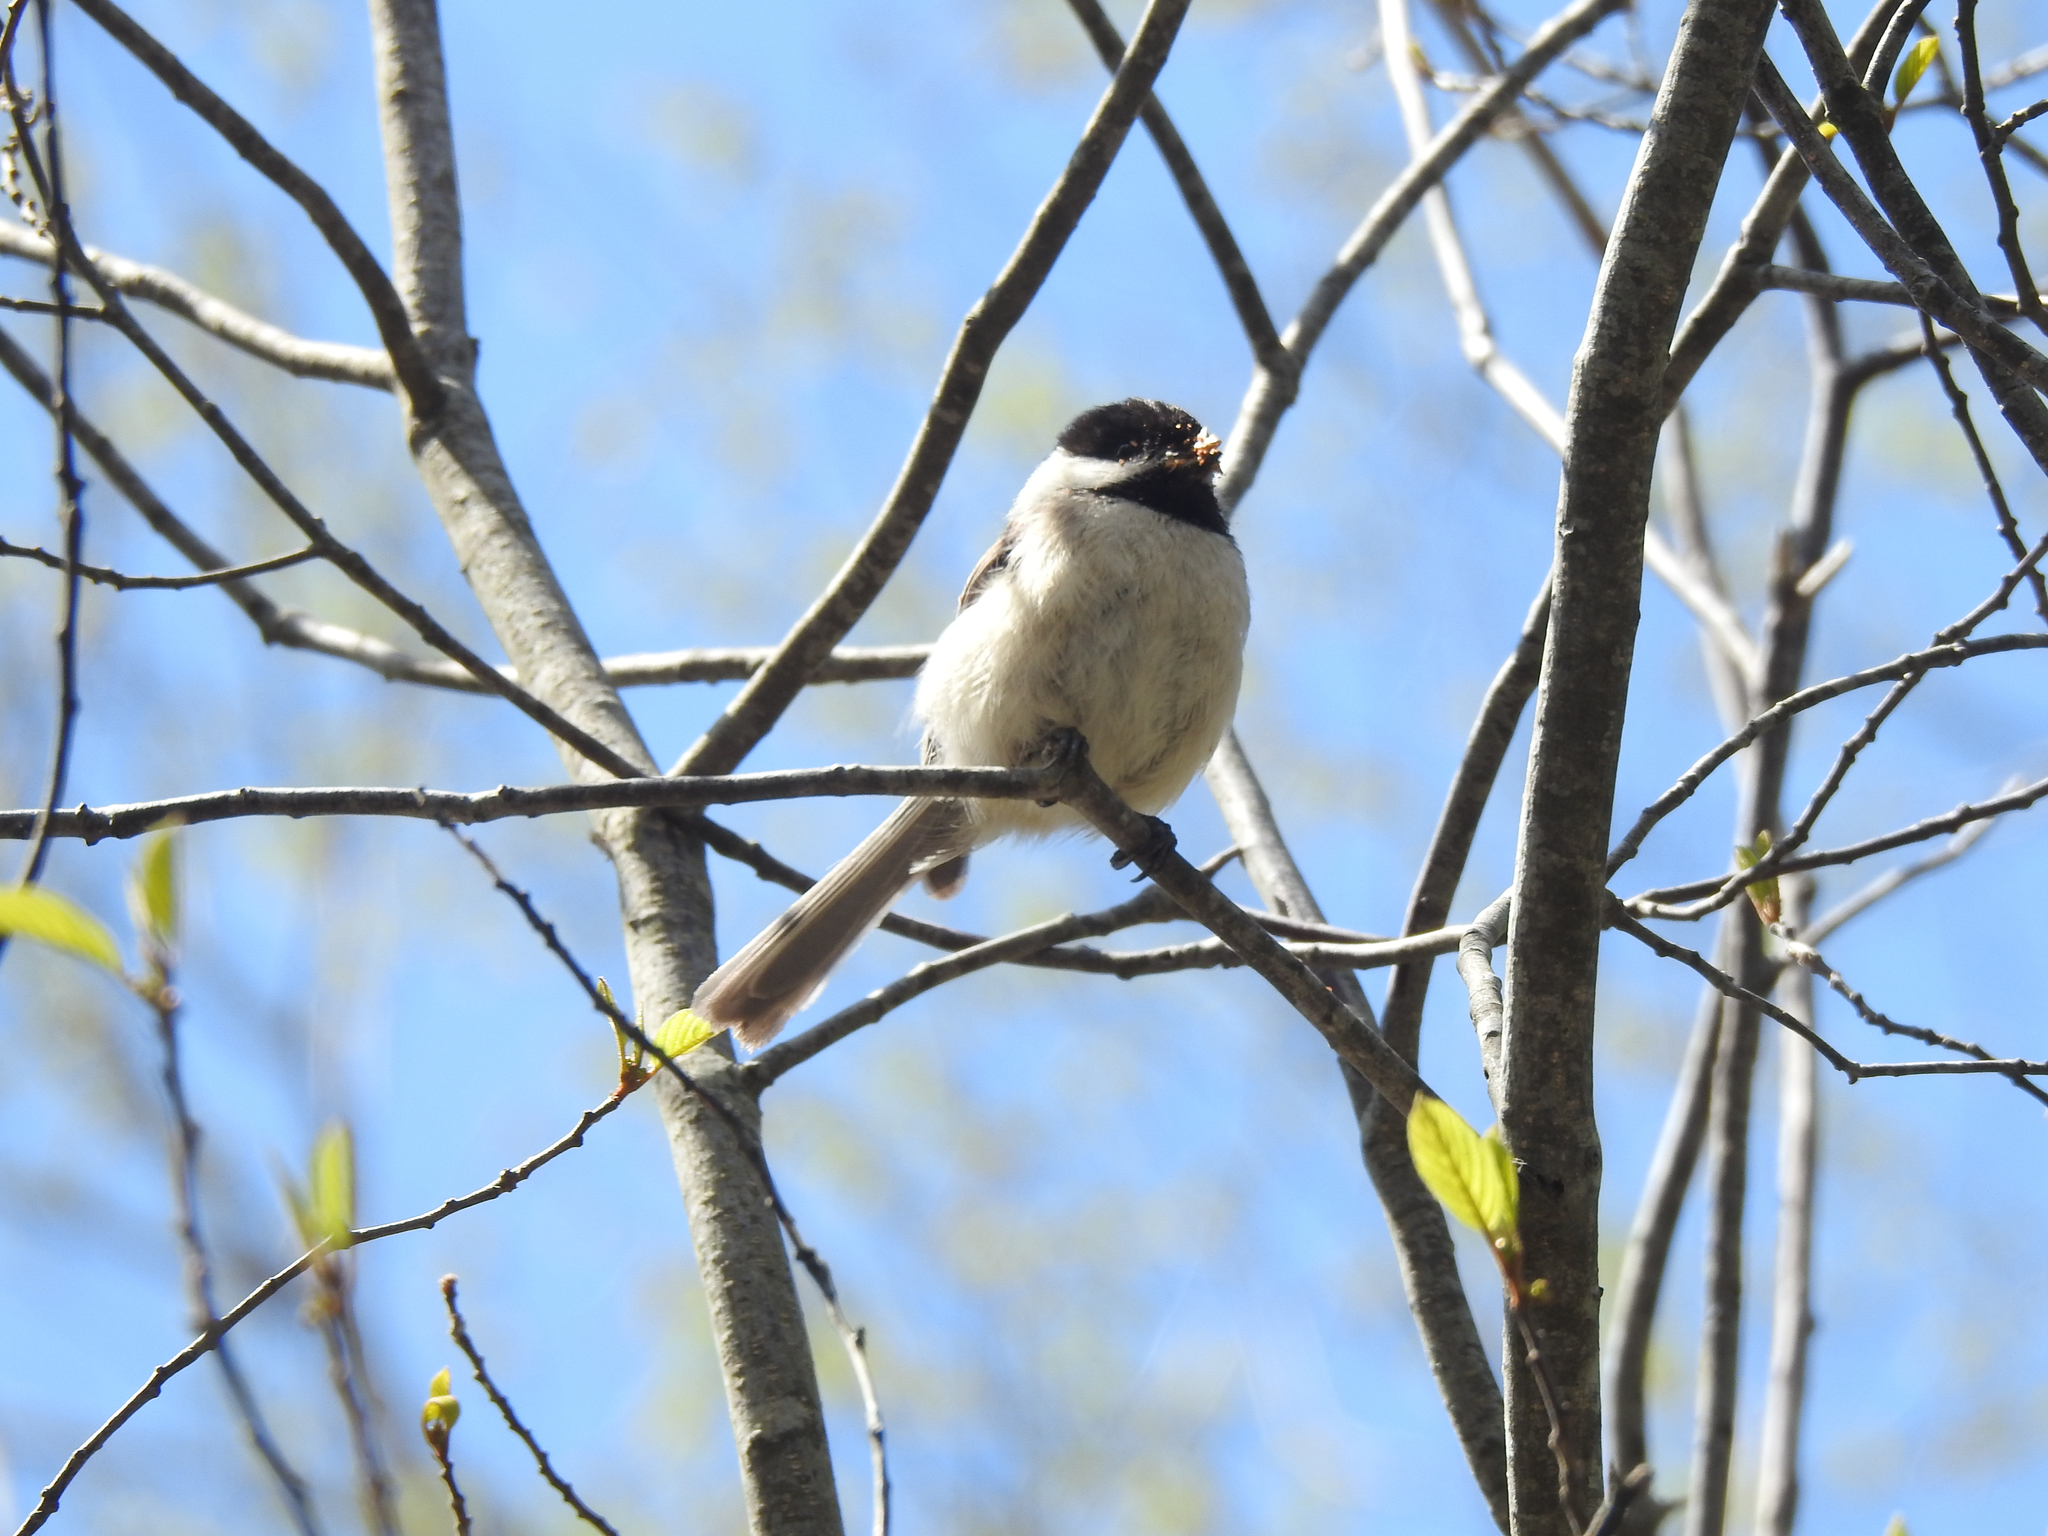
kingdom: Animalia
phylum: Chordata
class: Aves
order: Passeriformes
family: Paridae
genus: Poecile
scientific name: Poecile atricapillus
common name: Black-capped chickadee
